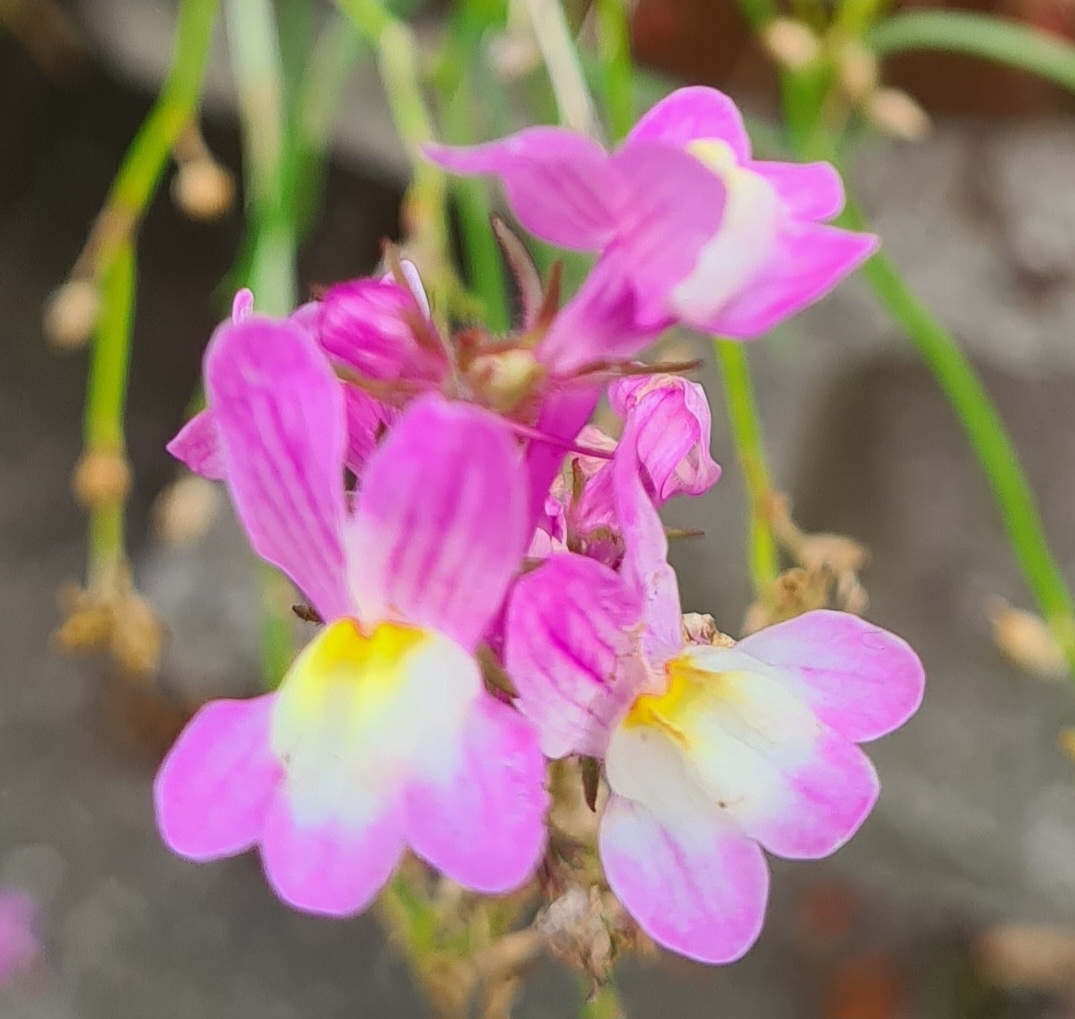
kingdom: Plantae
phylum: Tracheophyta
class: Magnoliopsida
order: Lamiales
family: Plantaginaceae
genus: Linaria
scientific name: Linaria maroccana
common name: Moroccan toadflax
